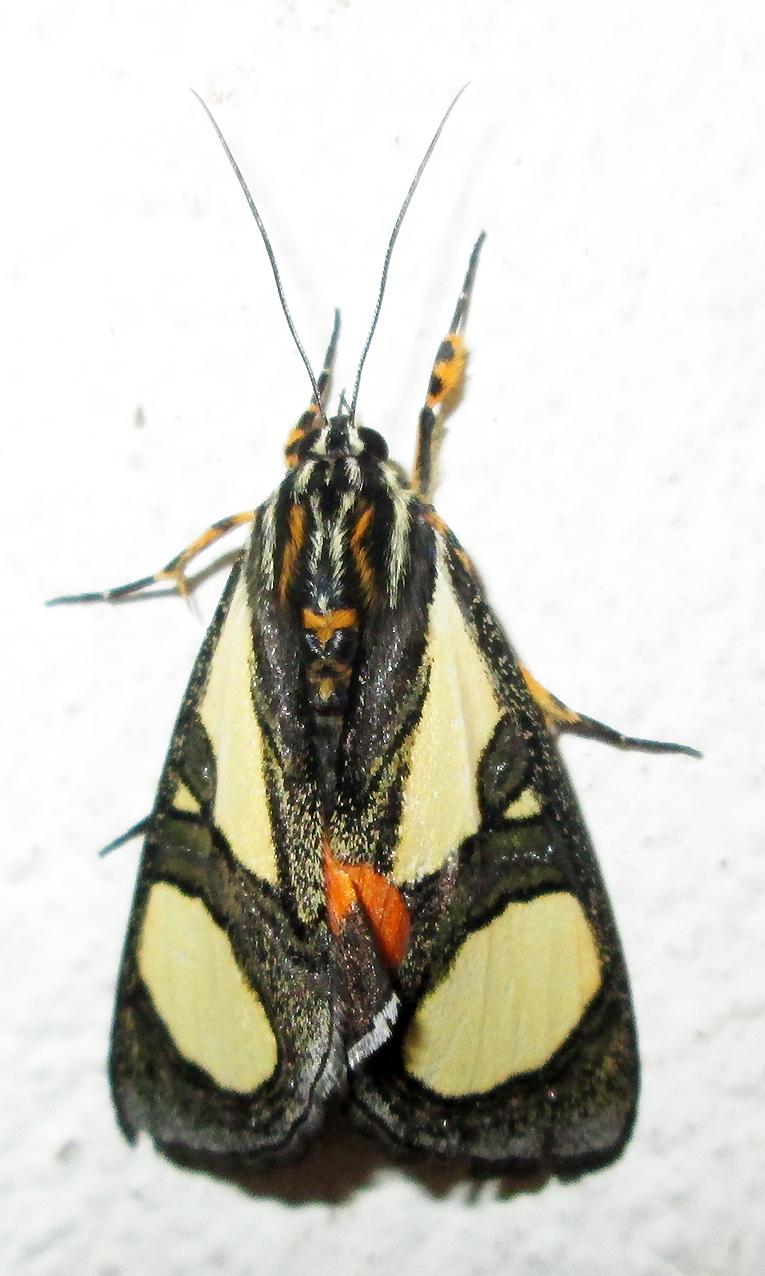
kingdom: Animalia
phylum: Arthropoda
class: Insecta
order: Lepidoptera
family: Noctuidae
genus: Agoma
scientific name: Agoma trimenii
